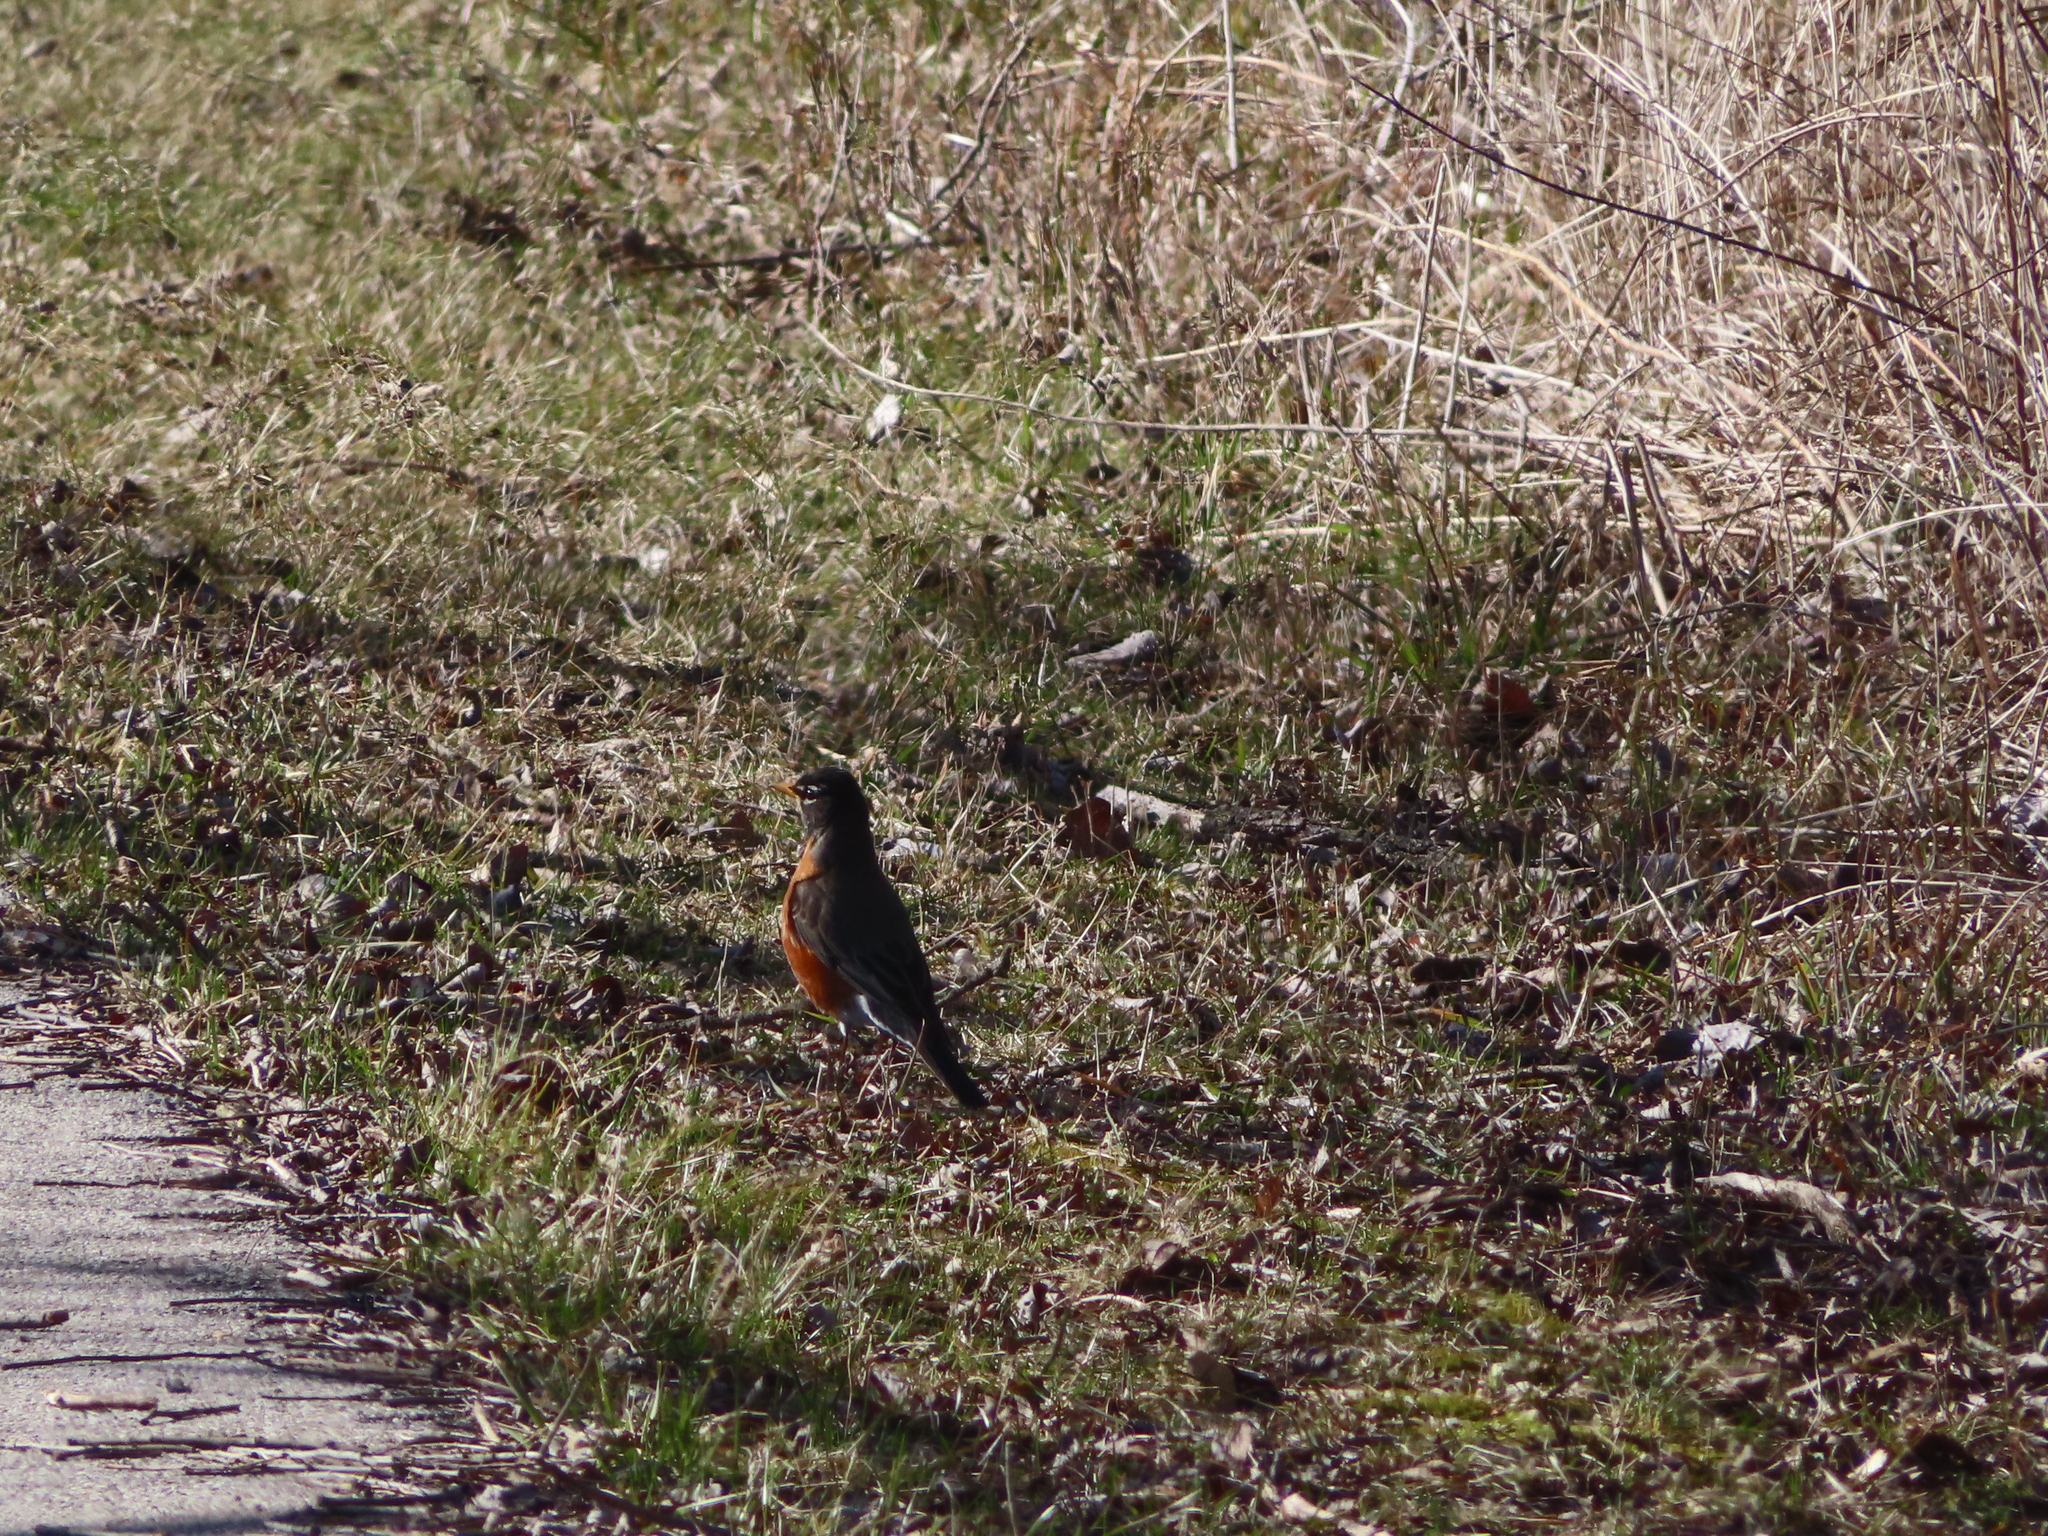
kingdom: Animalia
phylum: Chordata
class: Aves
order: Passeriformes
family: Turdidae
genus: Turdus
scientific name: Turdus migratorius
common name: American robin
